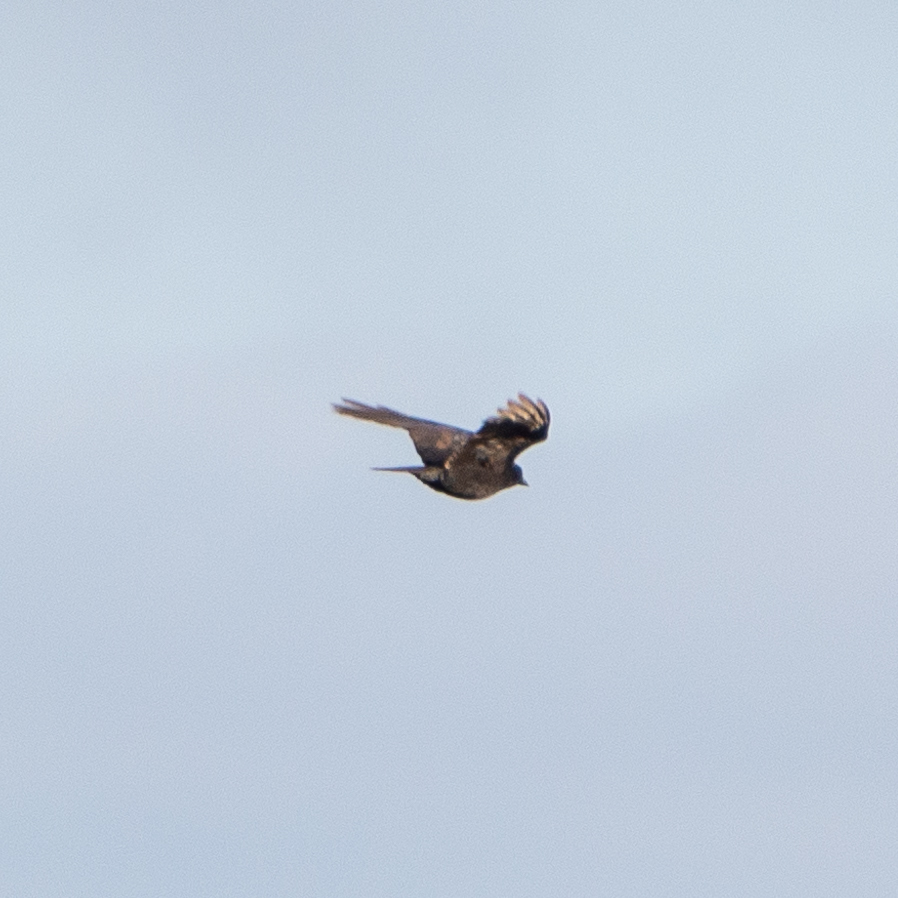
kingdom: Animalia
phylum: Chordata
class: Aves
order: Passeriformes
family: Corvidae
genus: Corvus
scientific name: Corvus corone
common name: Carrion crow
